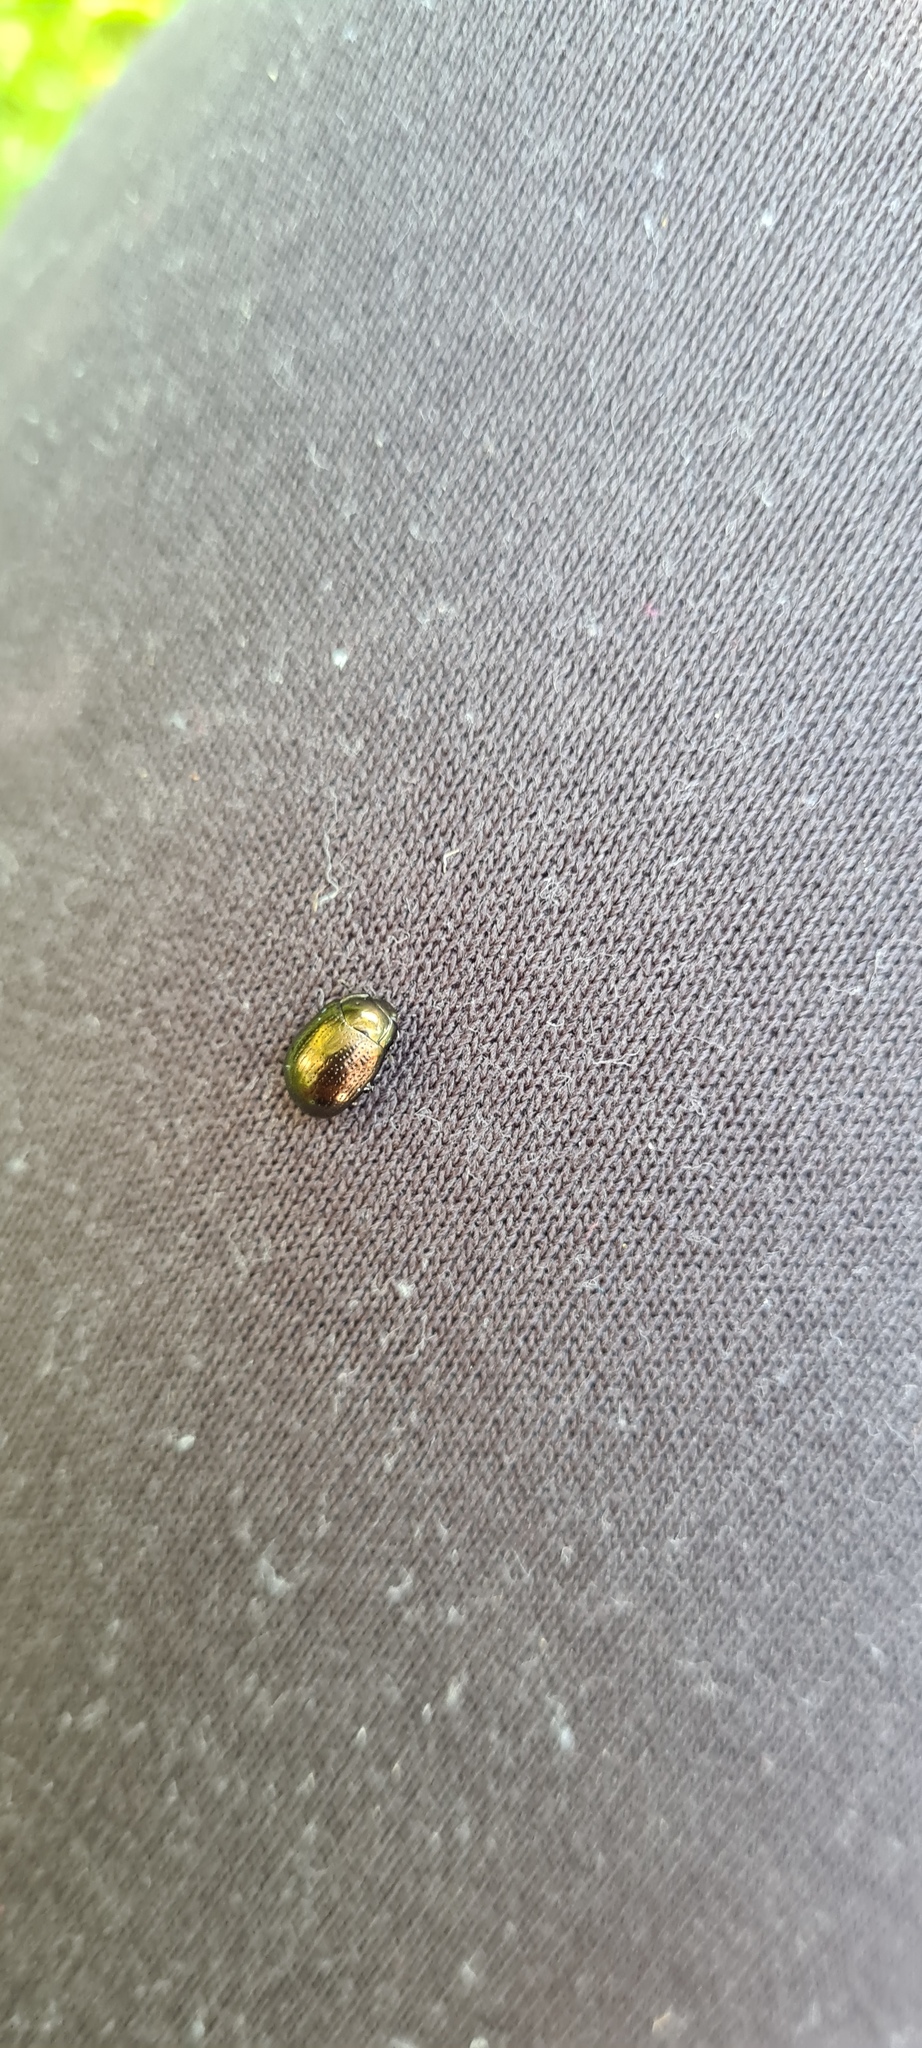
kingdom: Animalia
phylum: Arthropoda
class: Insecta
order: Coleoptera
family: Chrysomelidae
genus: Chrysolina
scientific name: Chrysolina oricalcia
